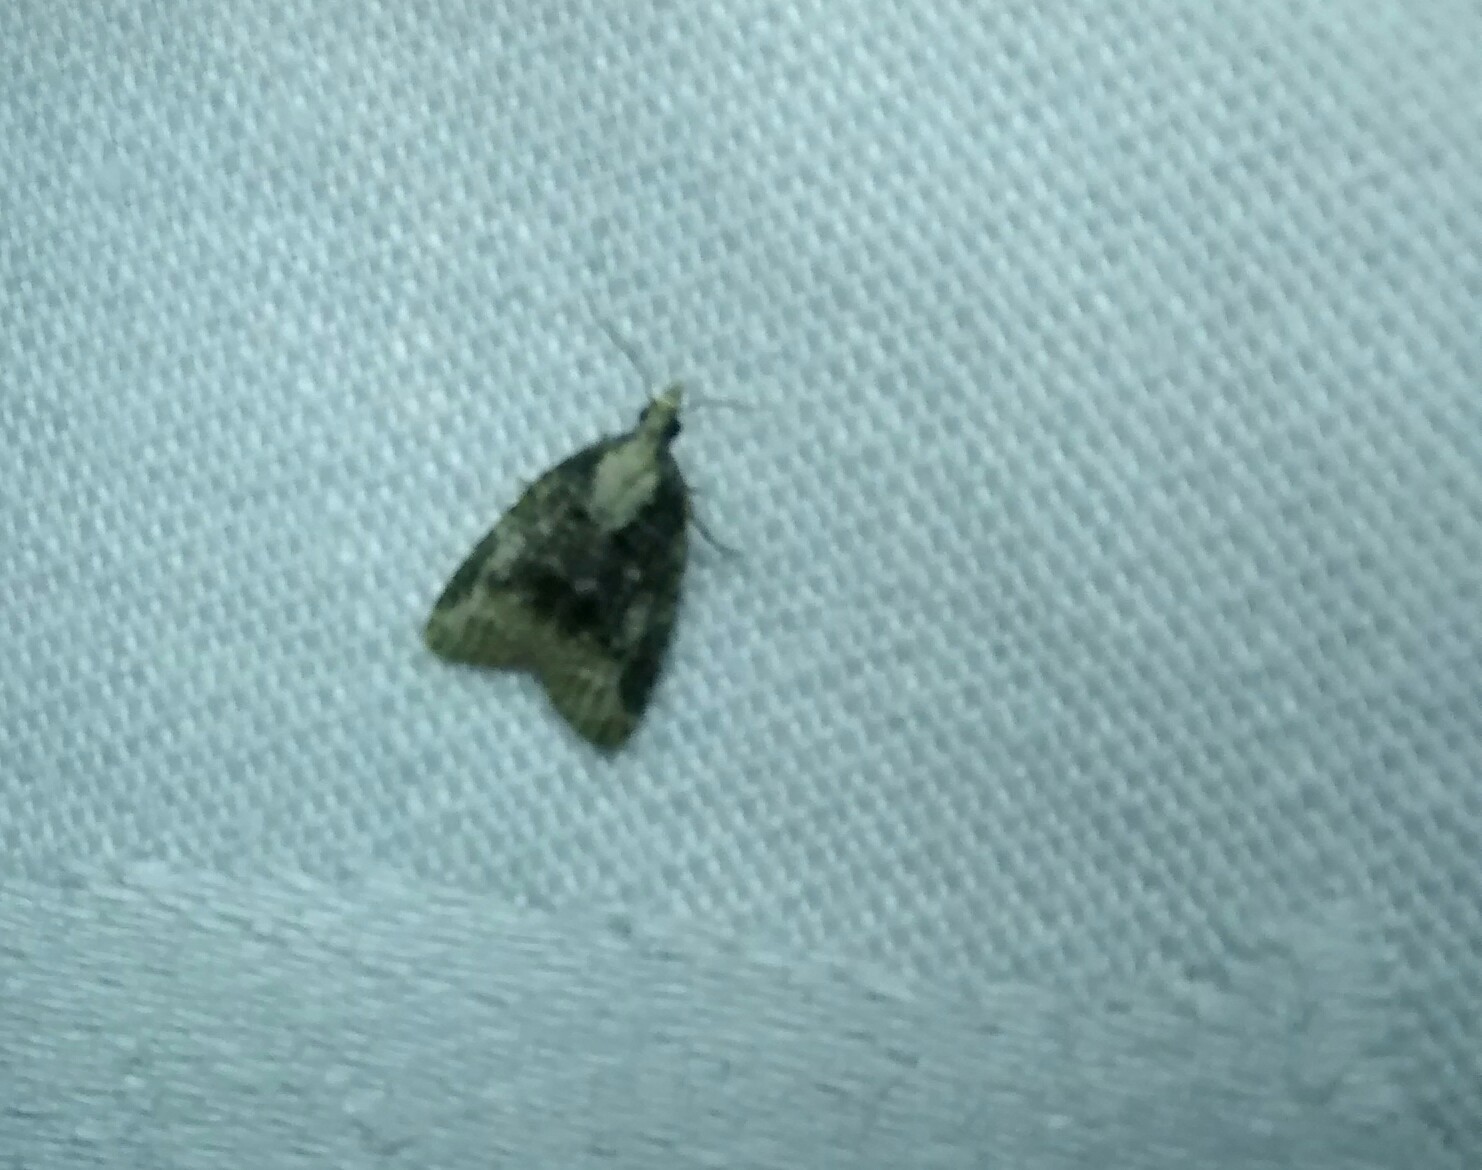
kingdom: Animalia
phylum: Arthropoda
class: Insecta
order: Lepidoptera
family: Tortricidae
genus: Platynota
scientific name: Platynota exasperatana
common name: Exasperating platynota moth
